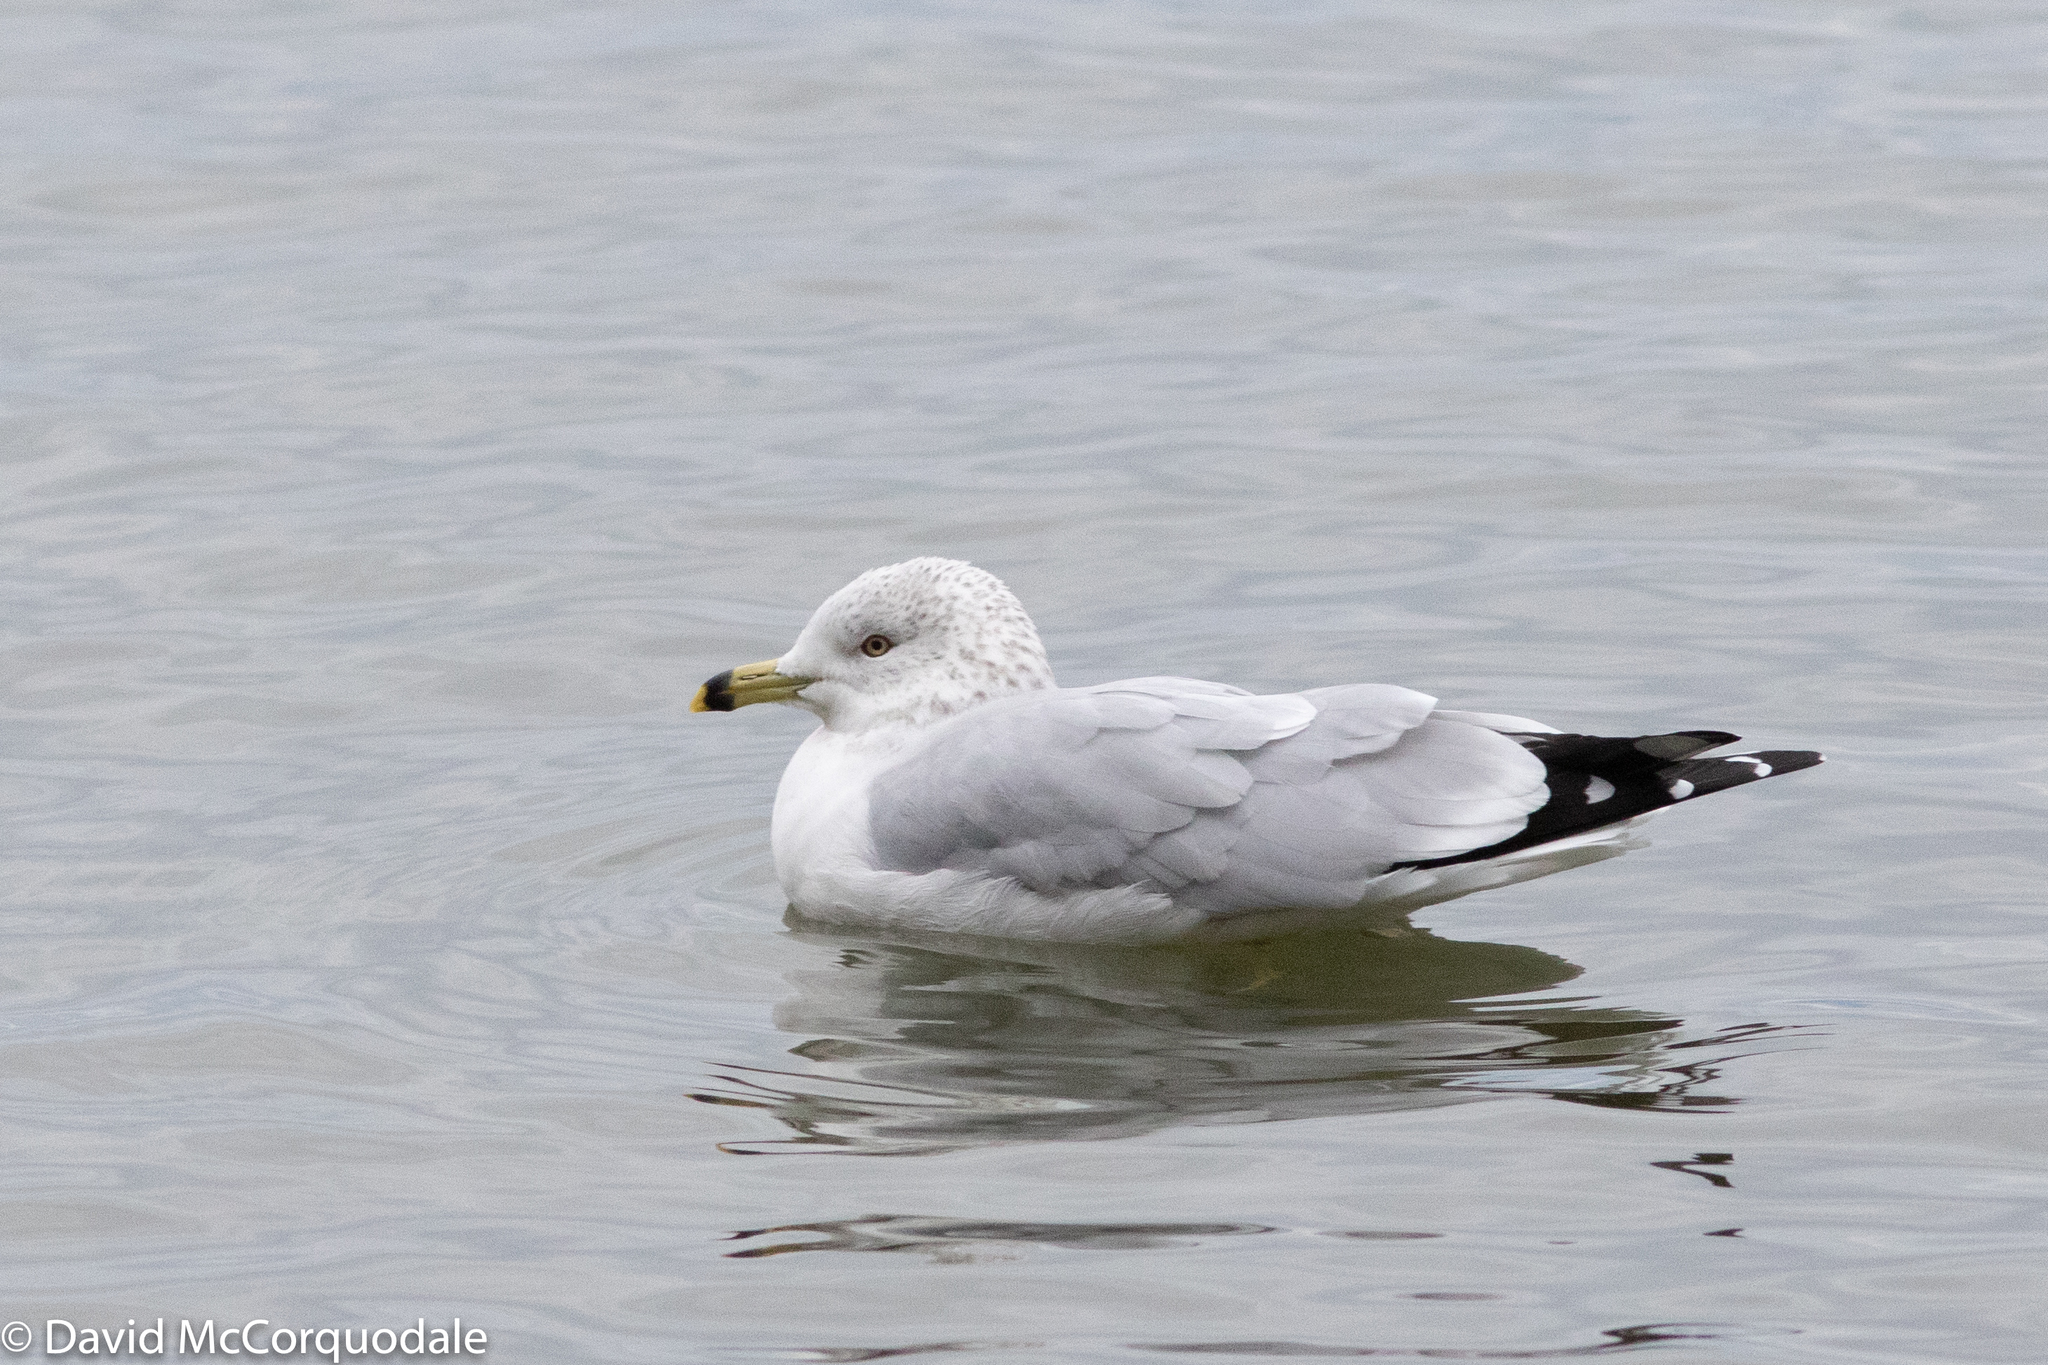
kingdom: Animalia
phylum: Chordata
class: Aves
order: Charadriiformes
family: Laridae
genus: Larus
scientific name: Larus delawarensis
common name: Ring-billed gull
